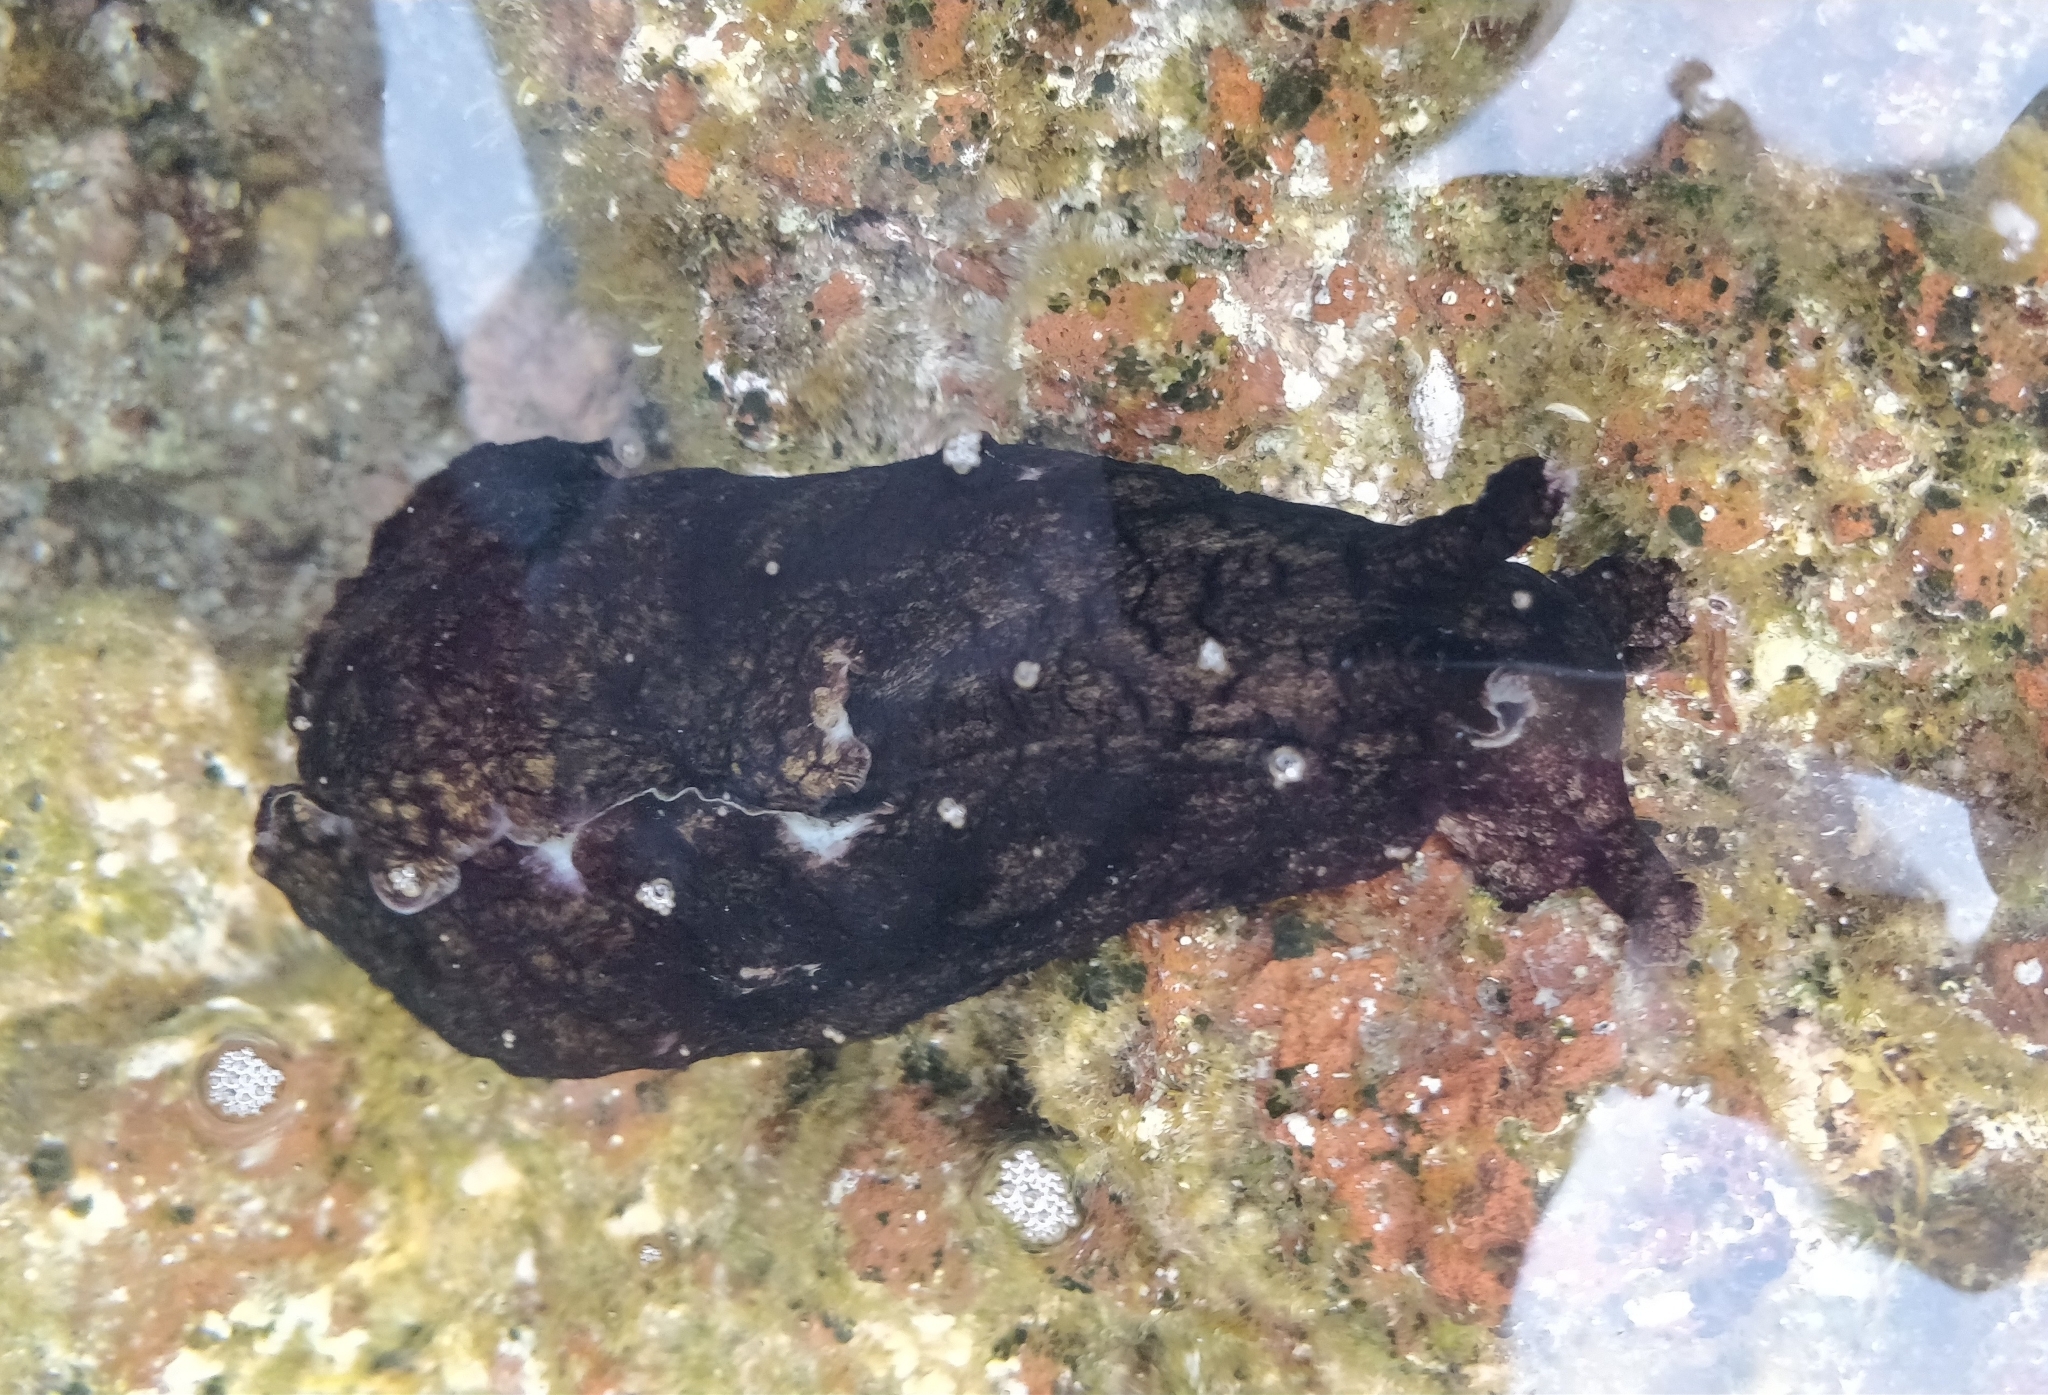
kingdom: Animalia
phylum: Mollusca
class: Gastropoda
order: Aplysiida
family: Aplysiidae
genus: Aplysia
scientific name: Aplysia dactylomela
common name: Large-spotted sea hare
